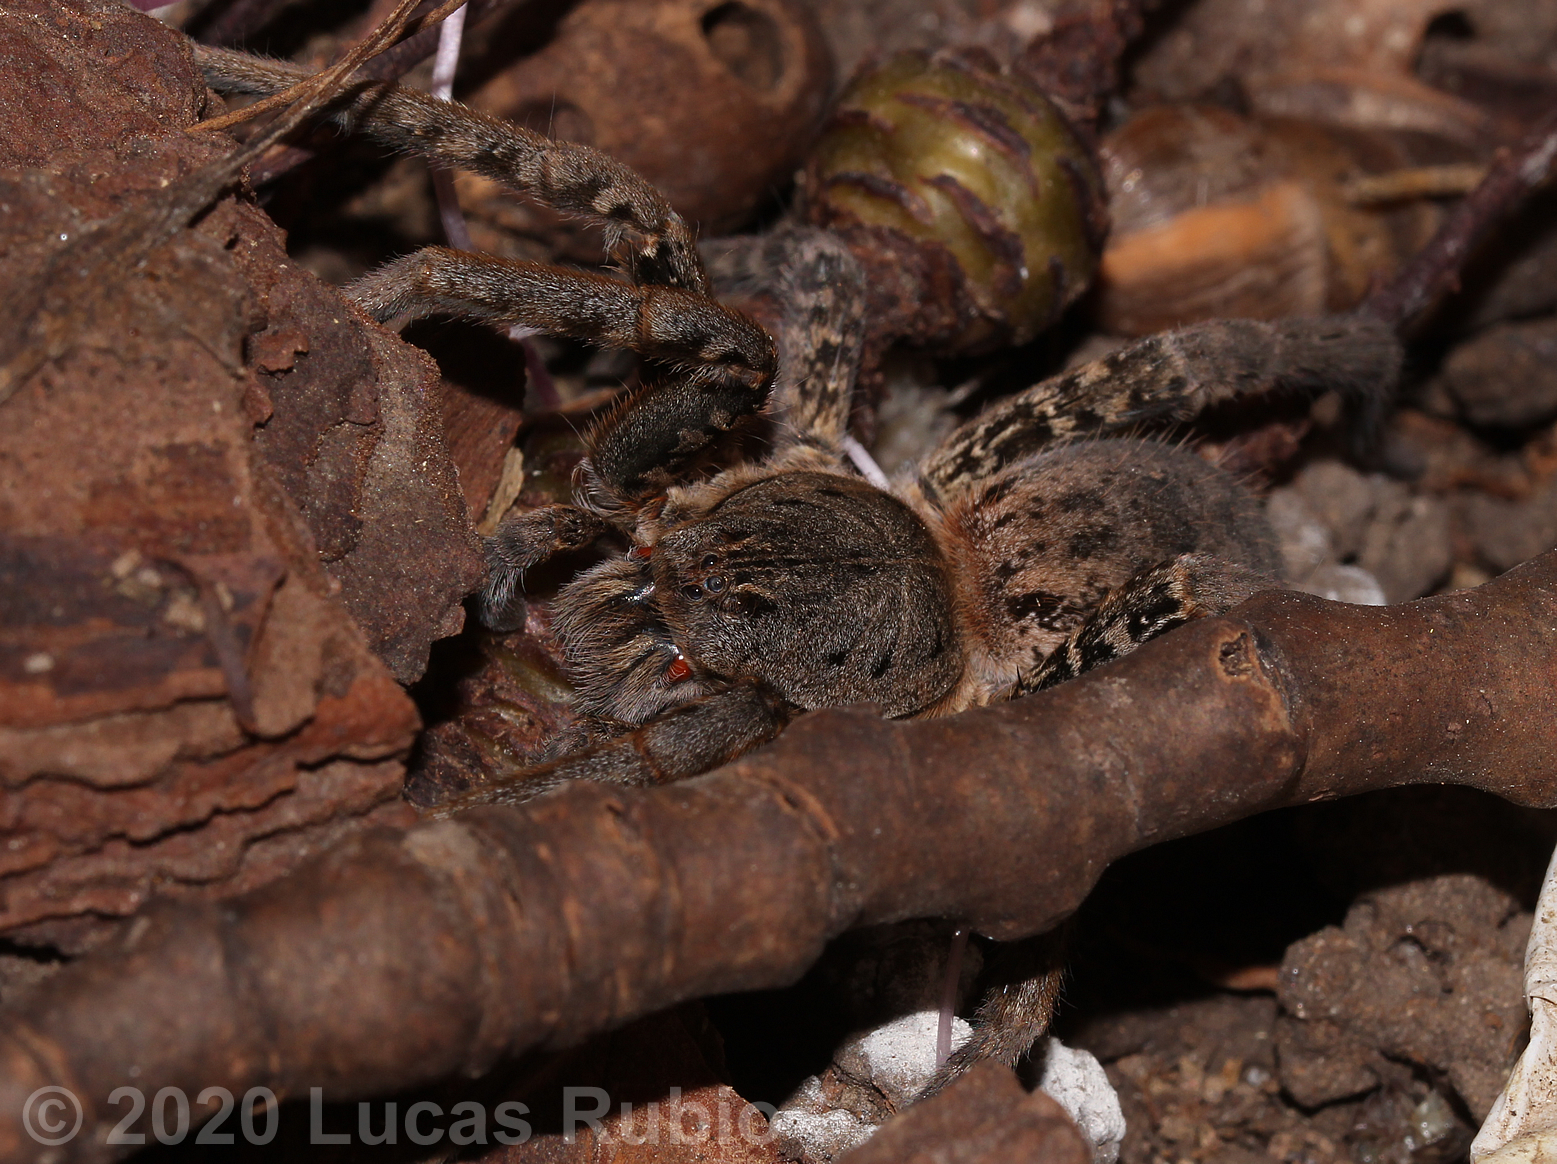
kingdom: Animalia
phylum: Arthropoda
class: Arachnida
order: Araneae
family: Ctenidae
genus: Ancylometes
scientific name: Ancylometes concolor
